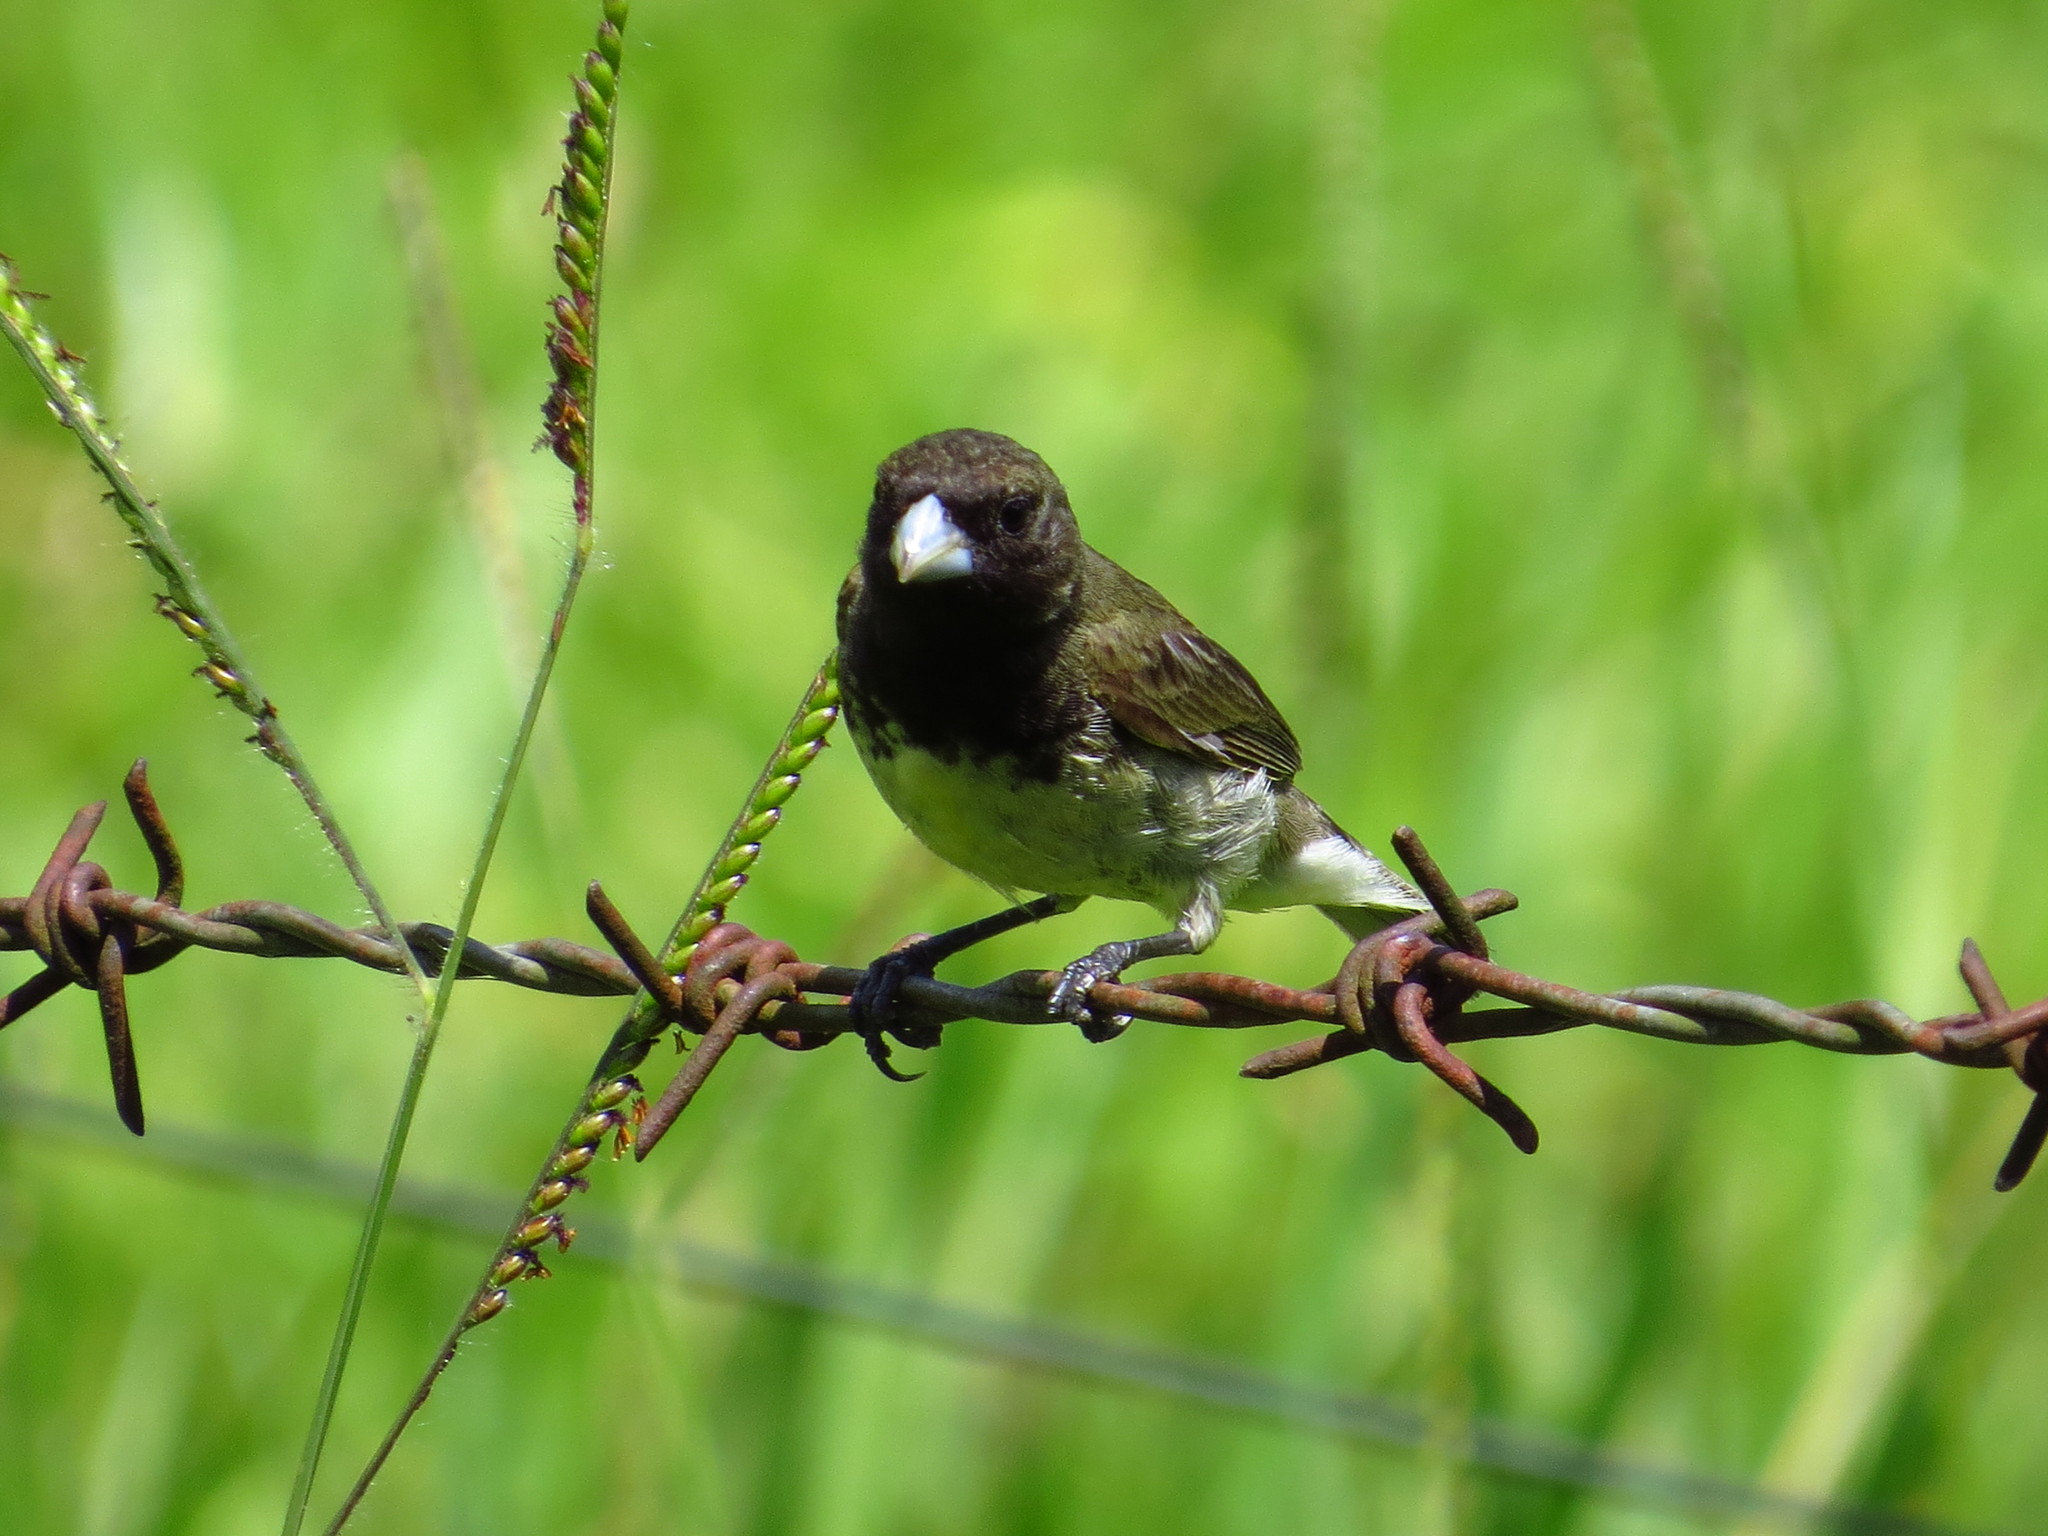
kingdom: Animalia
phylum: Chordata
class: Aves
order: Passeriformes
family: Thraupidae
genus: Sporophila
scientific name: Sporophila nigricollis
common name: Yellow-bellied seedeater
